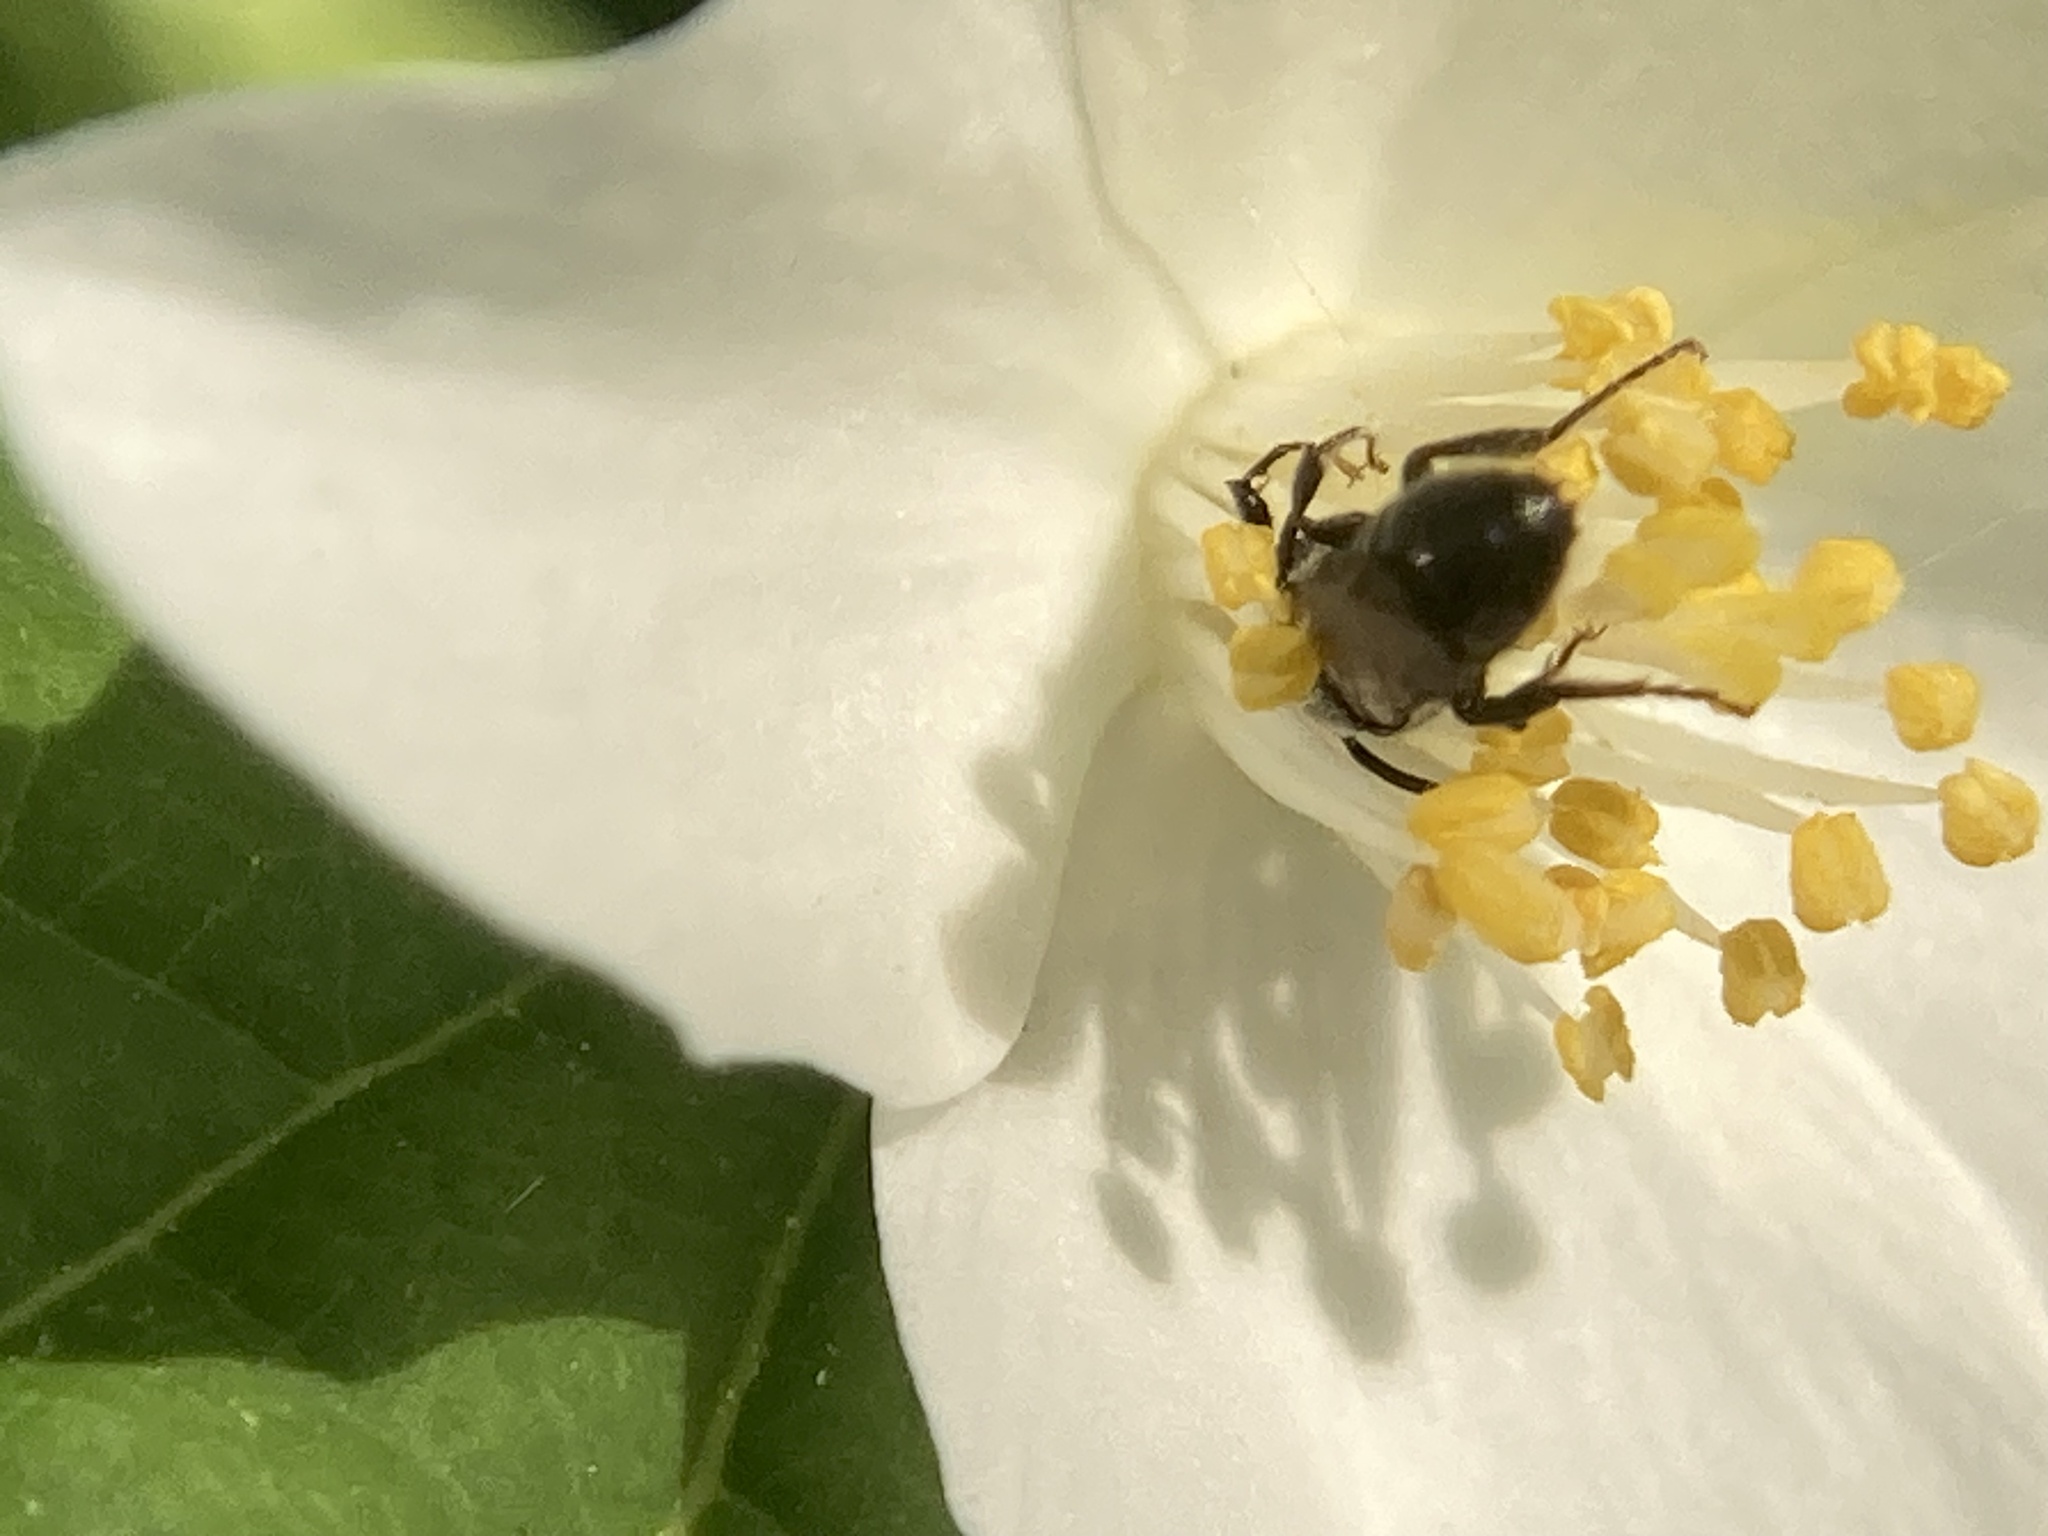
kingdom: Animalia
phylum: Arthropoda
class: Insecta
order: Hymenoptera
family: Megachilidae
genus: Chelostoma
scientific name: Chelostoma philadelphi
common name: Mock-orange scissor bee
